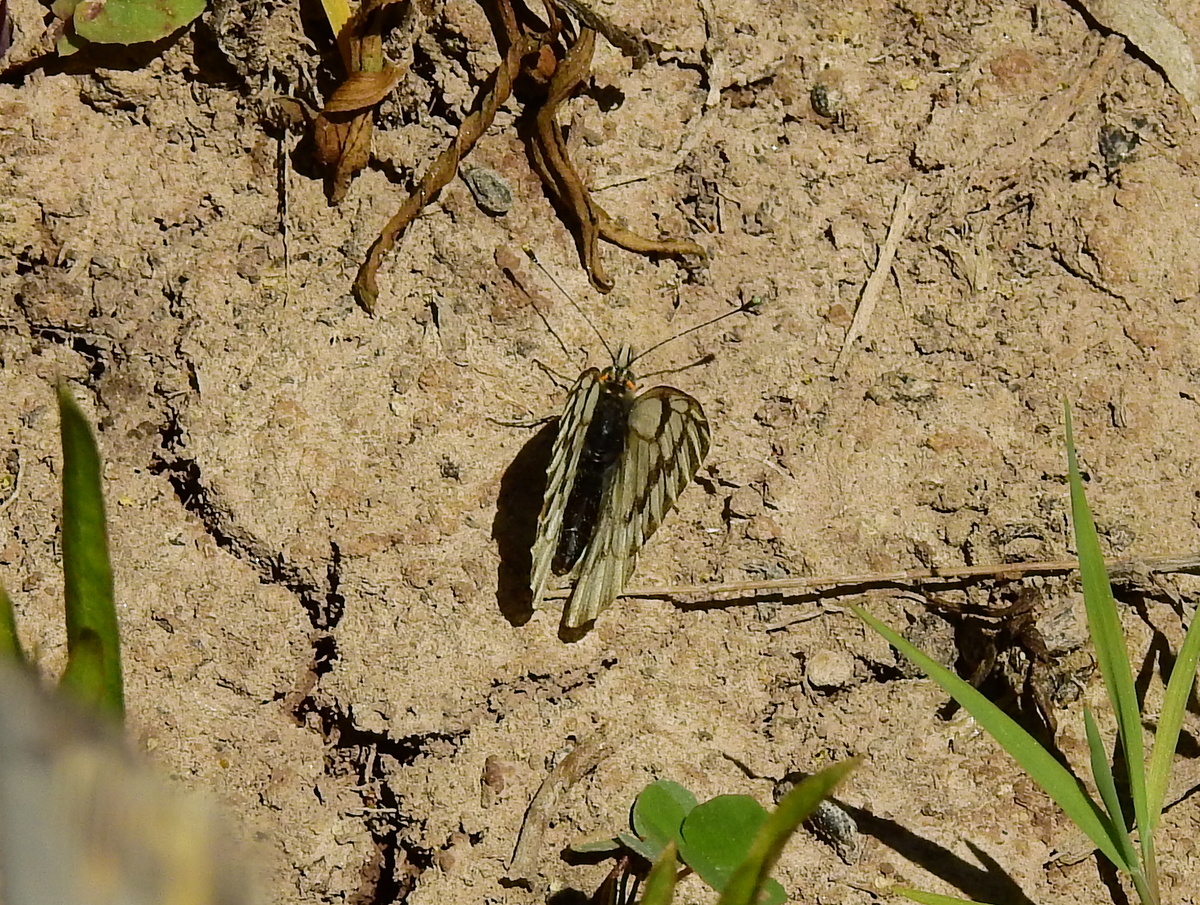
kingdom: Animalia
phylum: Arthropoda
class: Insecta
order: Lepidoptera
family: Pieridae
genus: Tatochila
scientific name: Tatochila mercedis
